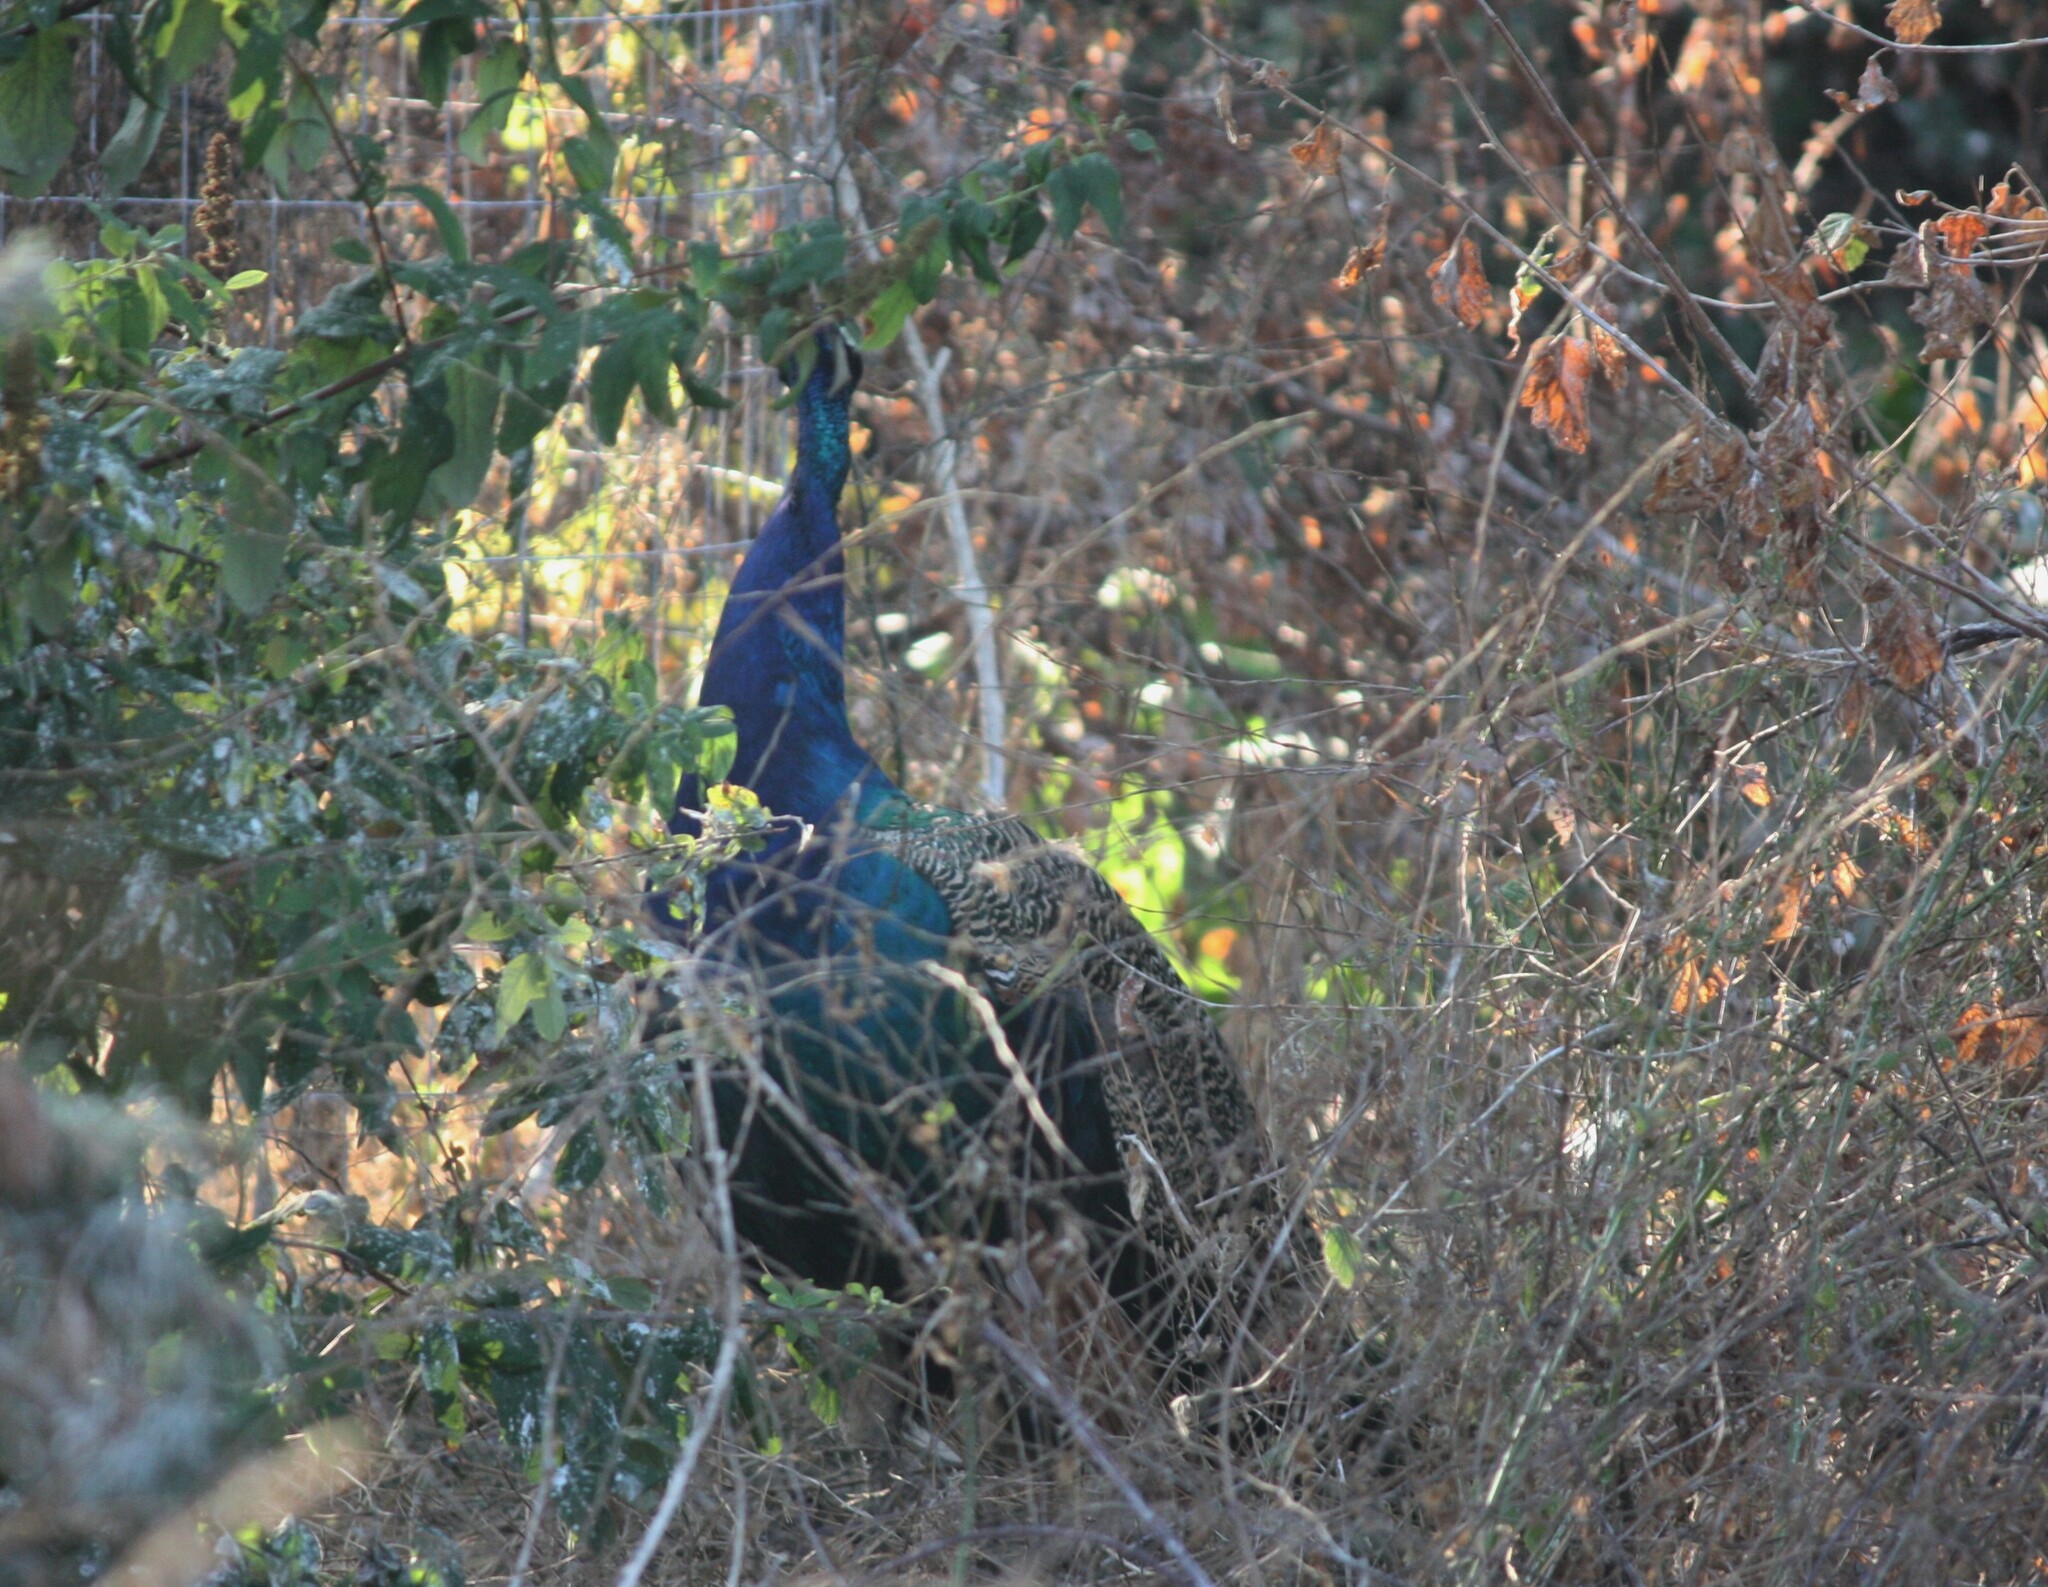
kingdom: Animalia
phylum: Chordata
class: Aves
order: Galliformes
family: Phasianidae
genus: Pavo
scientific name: Pavo cristatus
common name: Indian peafowl
